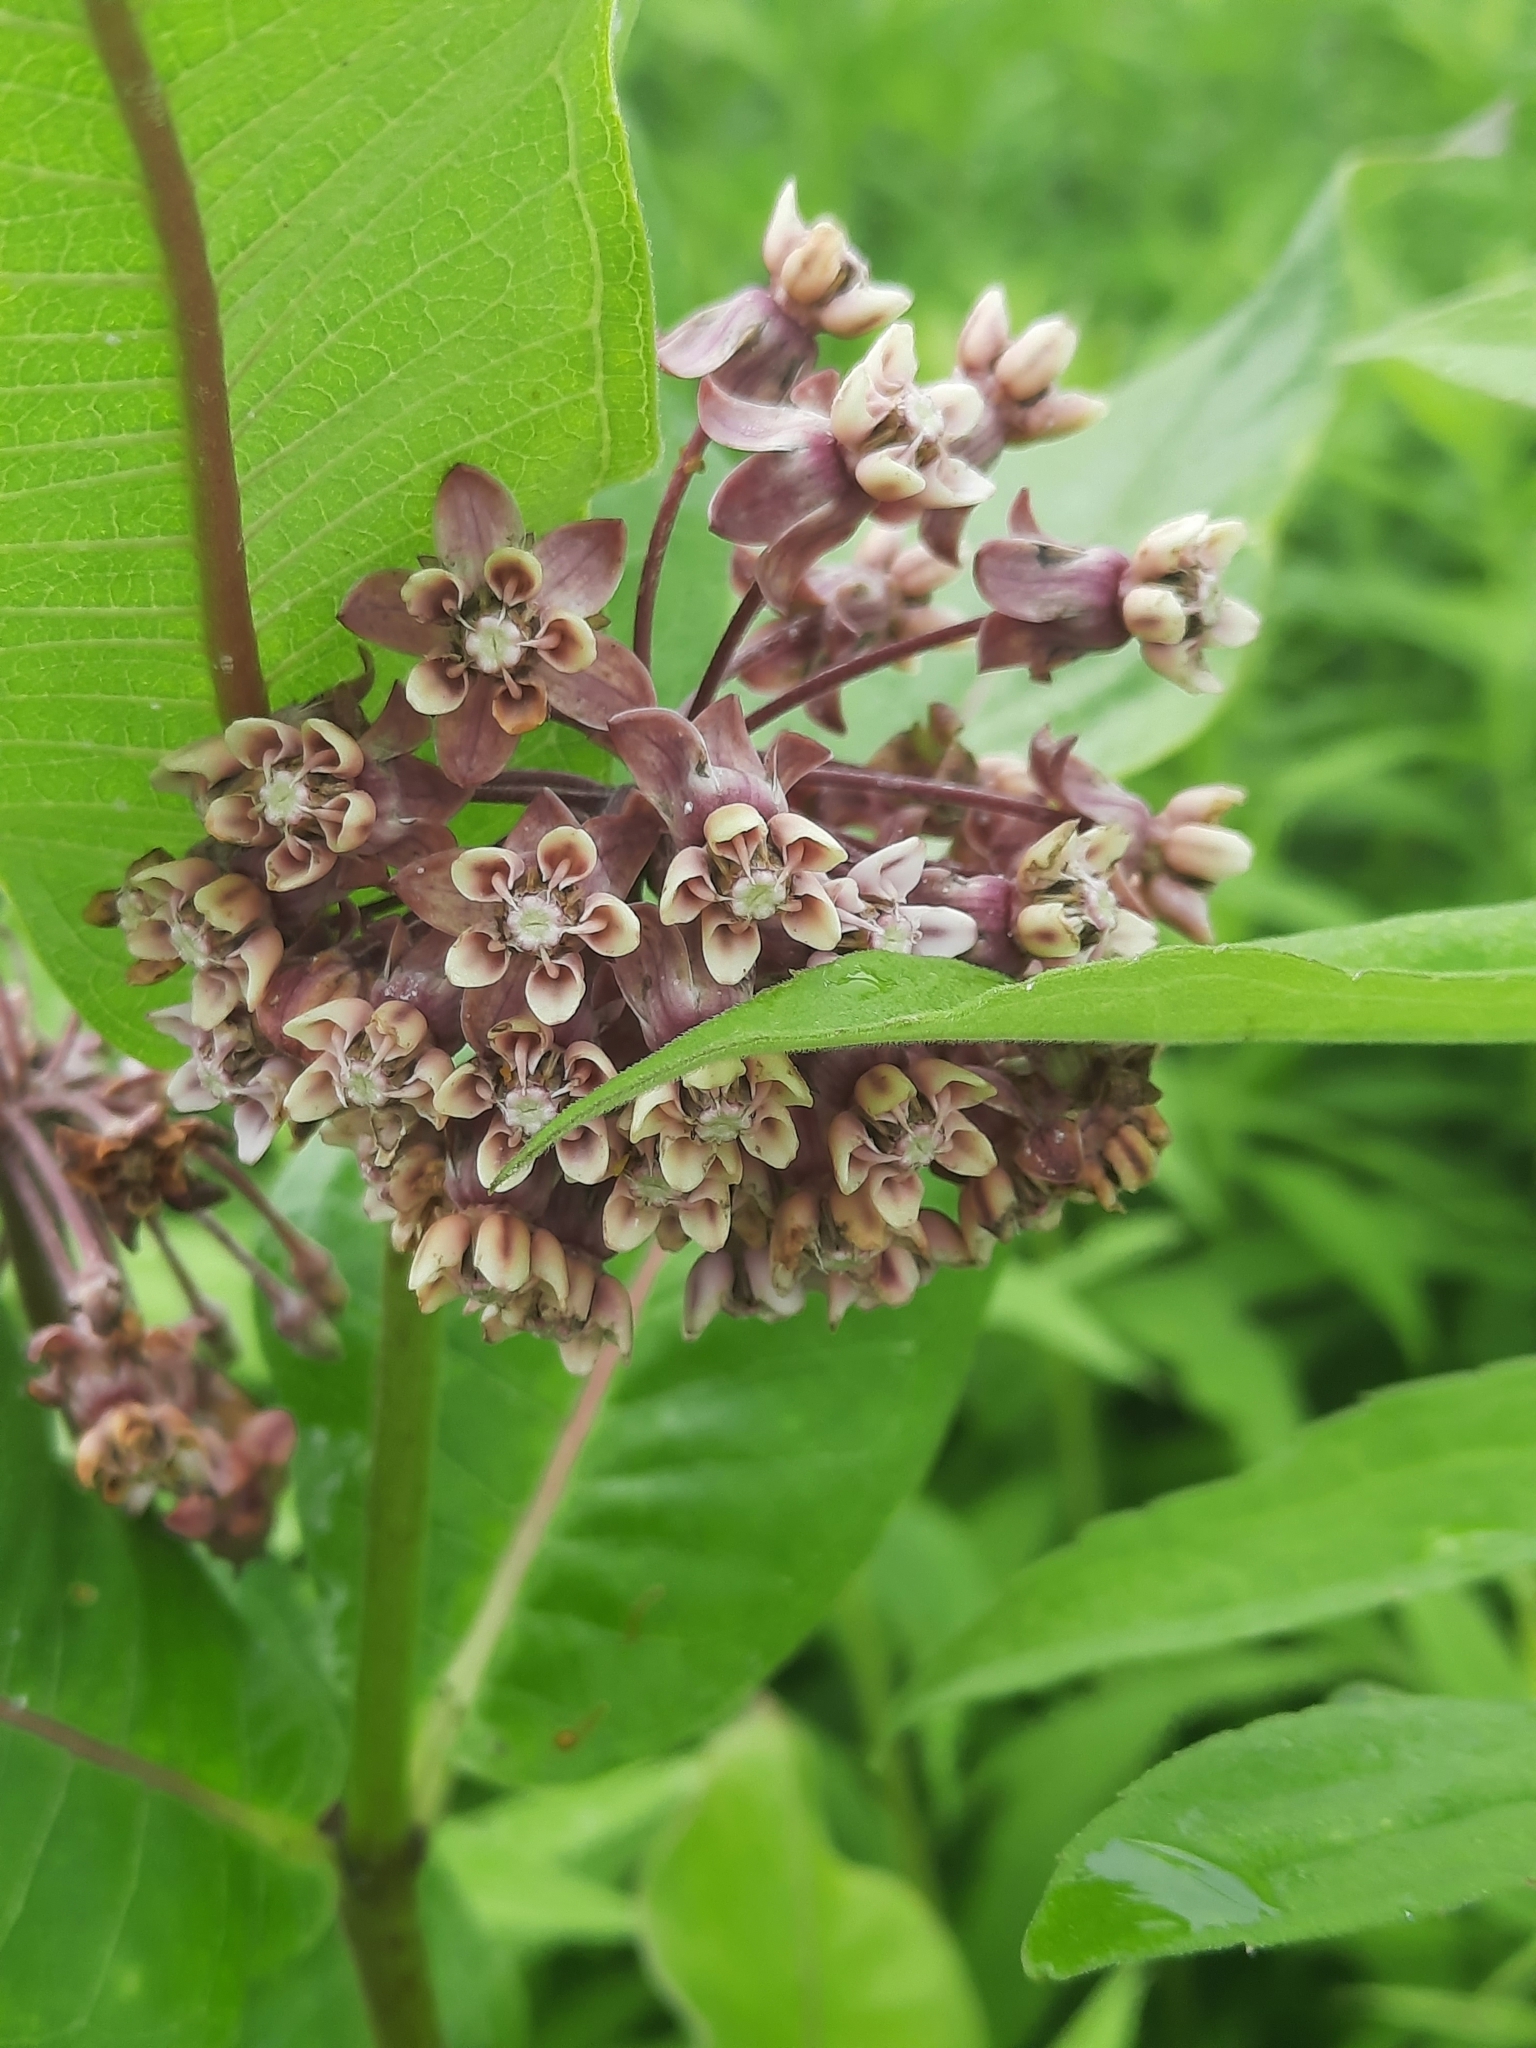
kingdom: Plantae
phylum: Tracheophyta
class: Magnoliopsida
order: Gentianales
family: Apocynaceae
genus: Asclepias
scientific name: Asclepias syriaca
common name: Common milkweed
